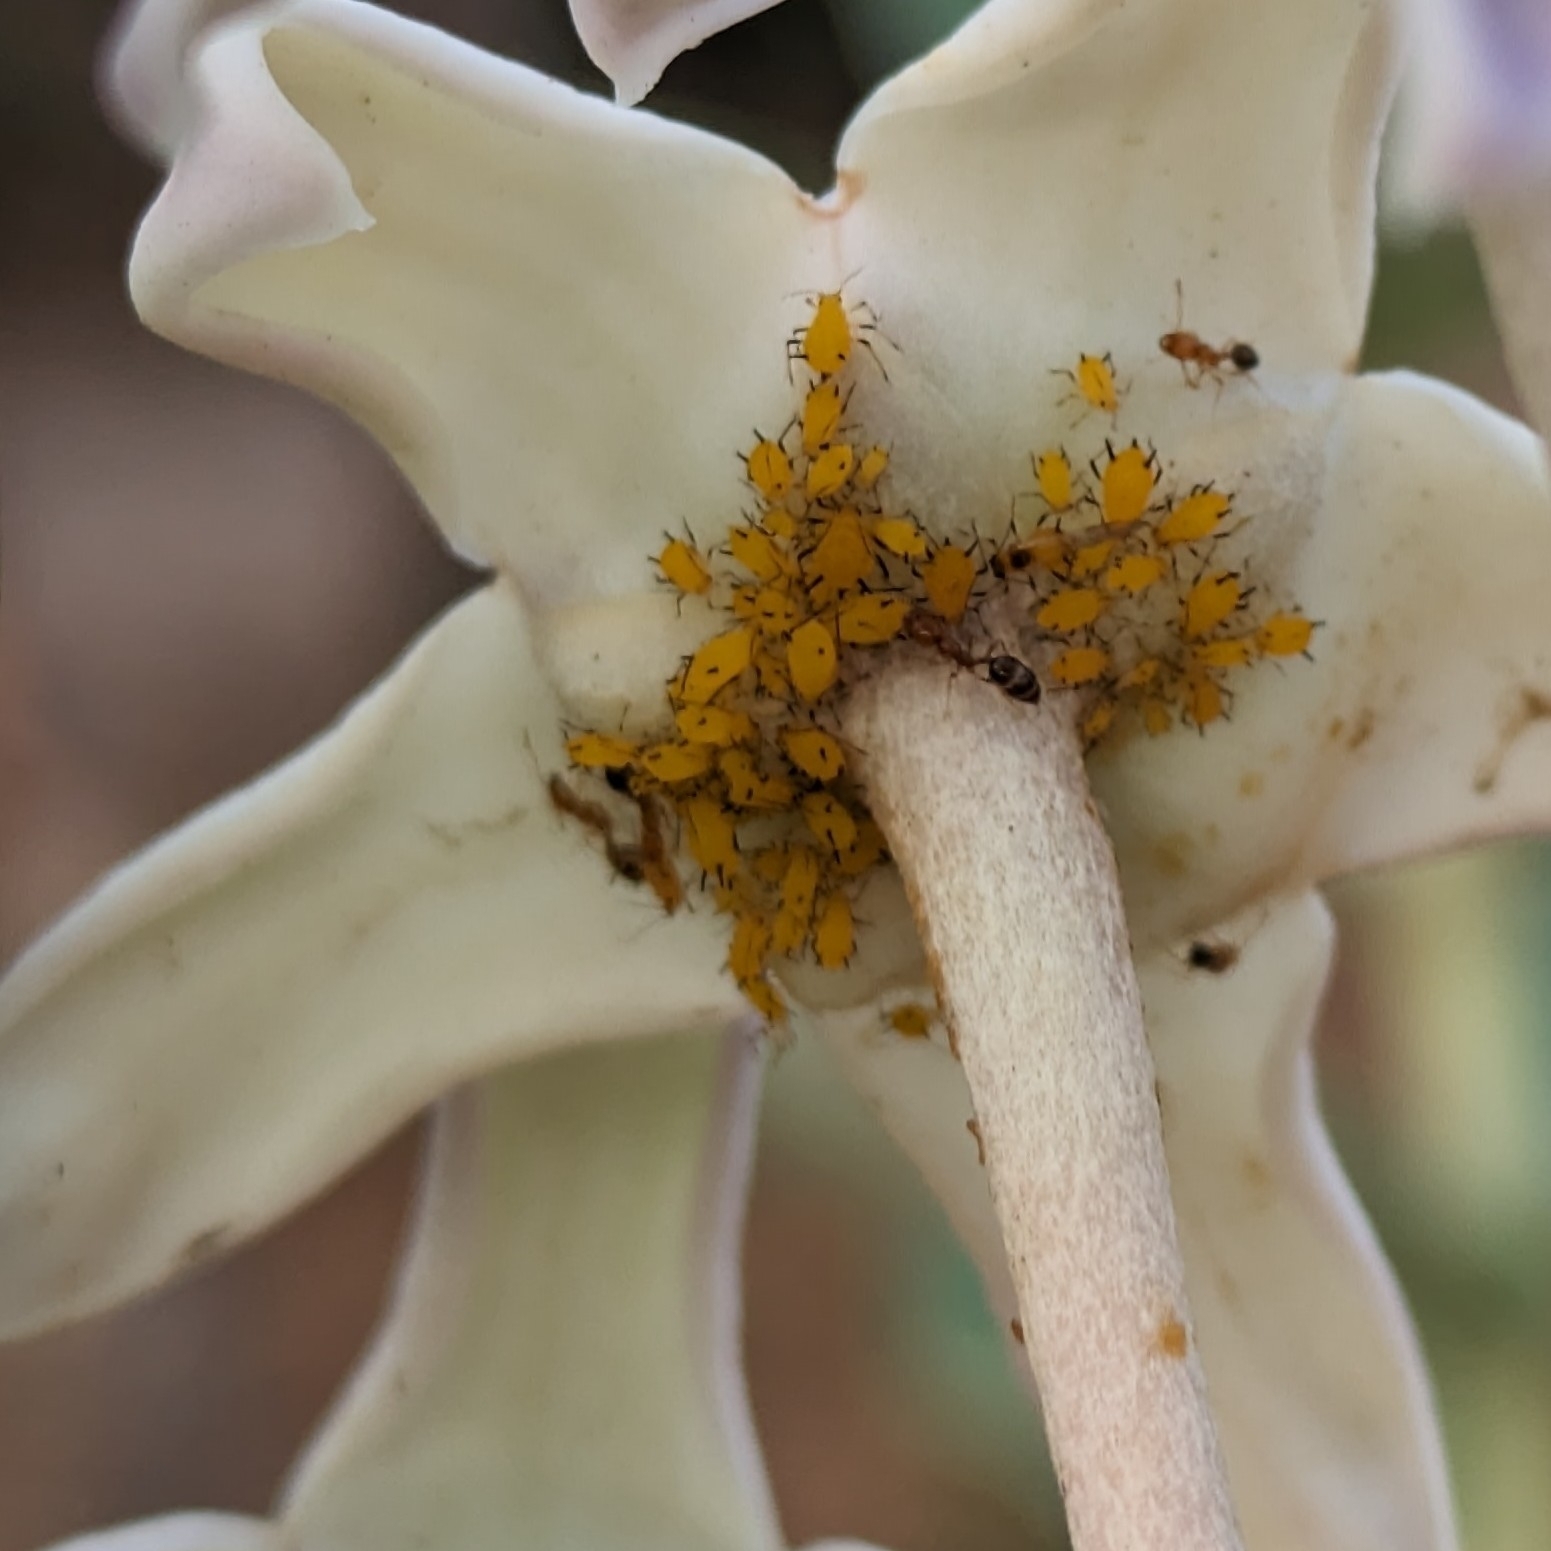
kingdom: Animalia
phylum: Arthropoda
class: Insecta
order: Hemiptera
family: Aphididae
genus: Aphis
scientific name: Aphis nerii
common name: Oleander aphid
